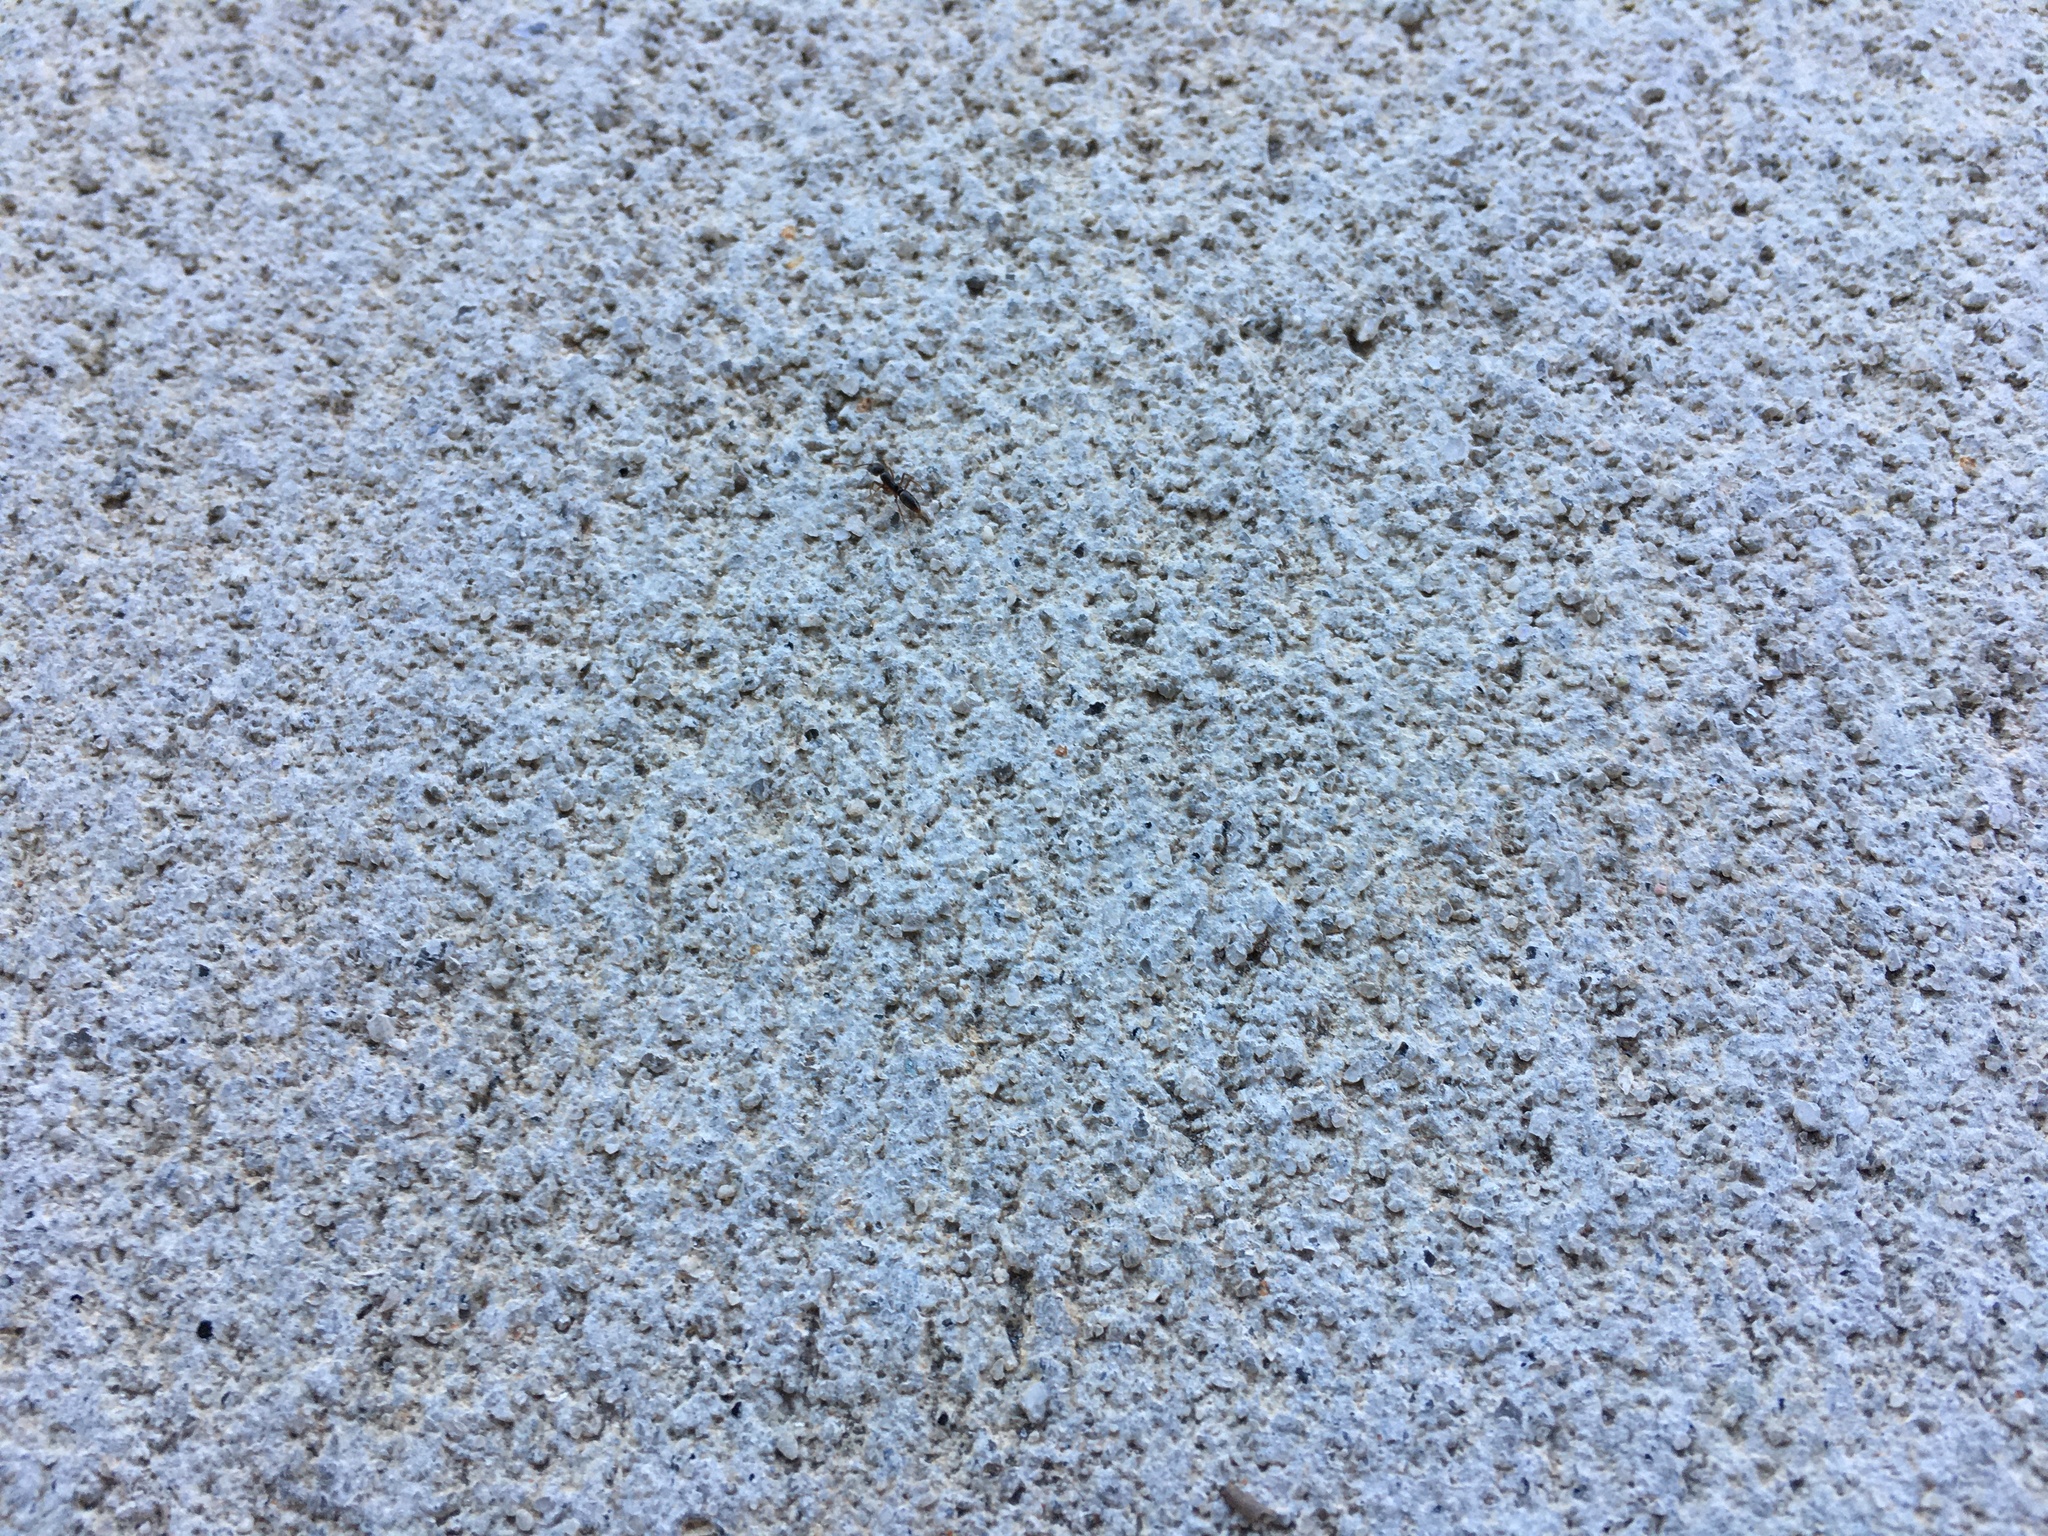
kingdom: Animalia
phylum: Arthropoda
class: Insecta
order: Hymenoptera
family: Formicidae
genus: Pachycondyla
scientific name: Pachycondyla chinensis
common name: Asian needle ant
